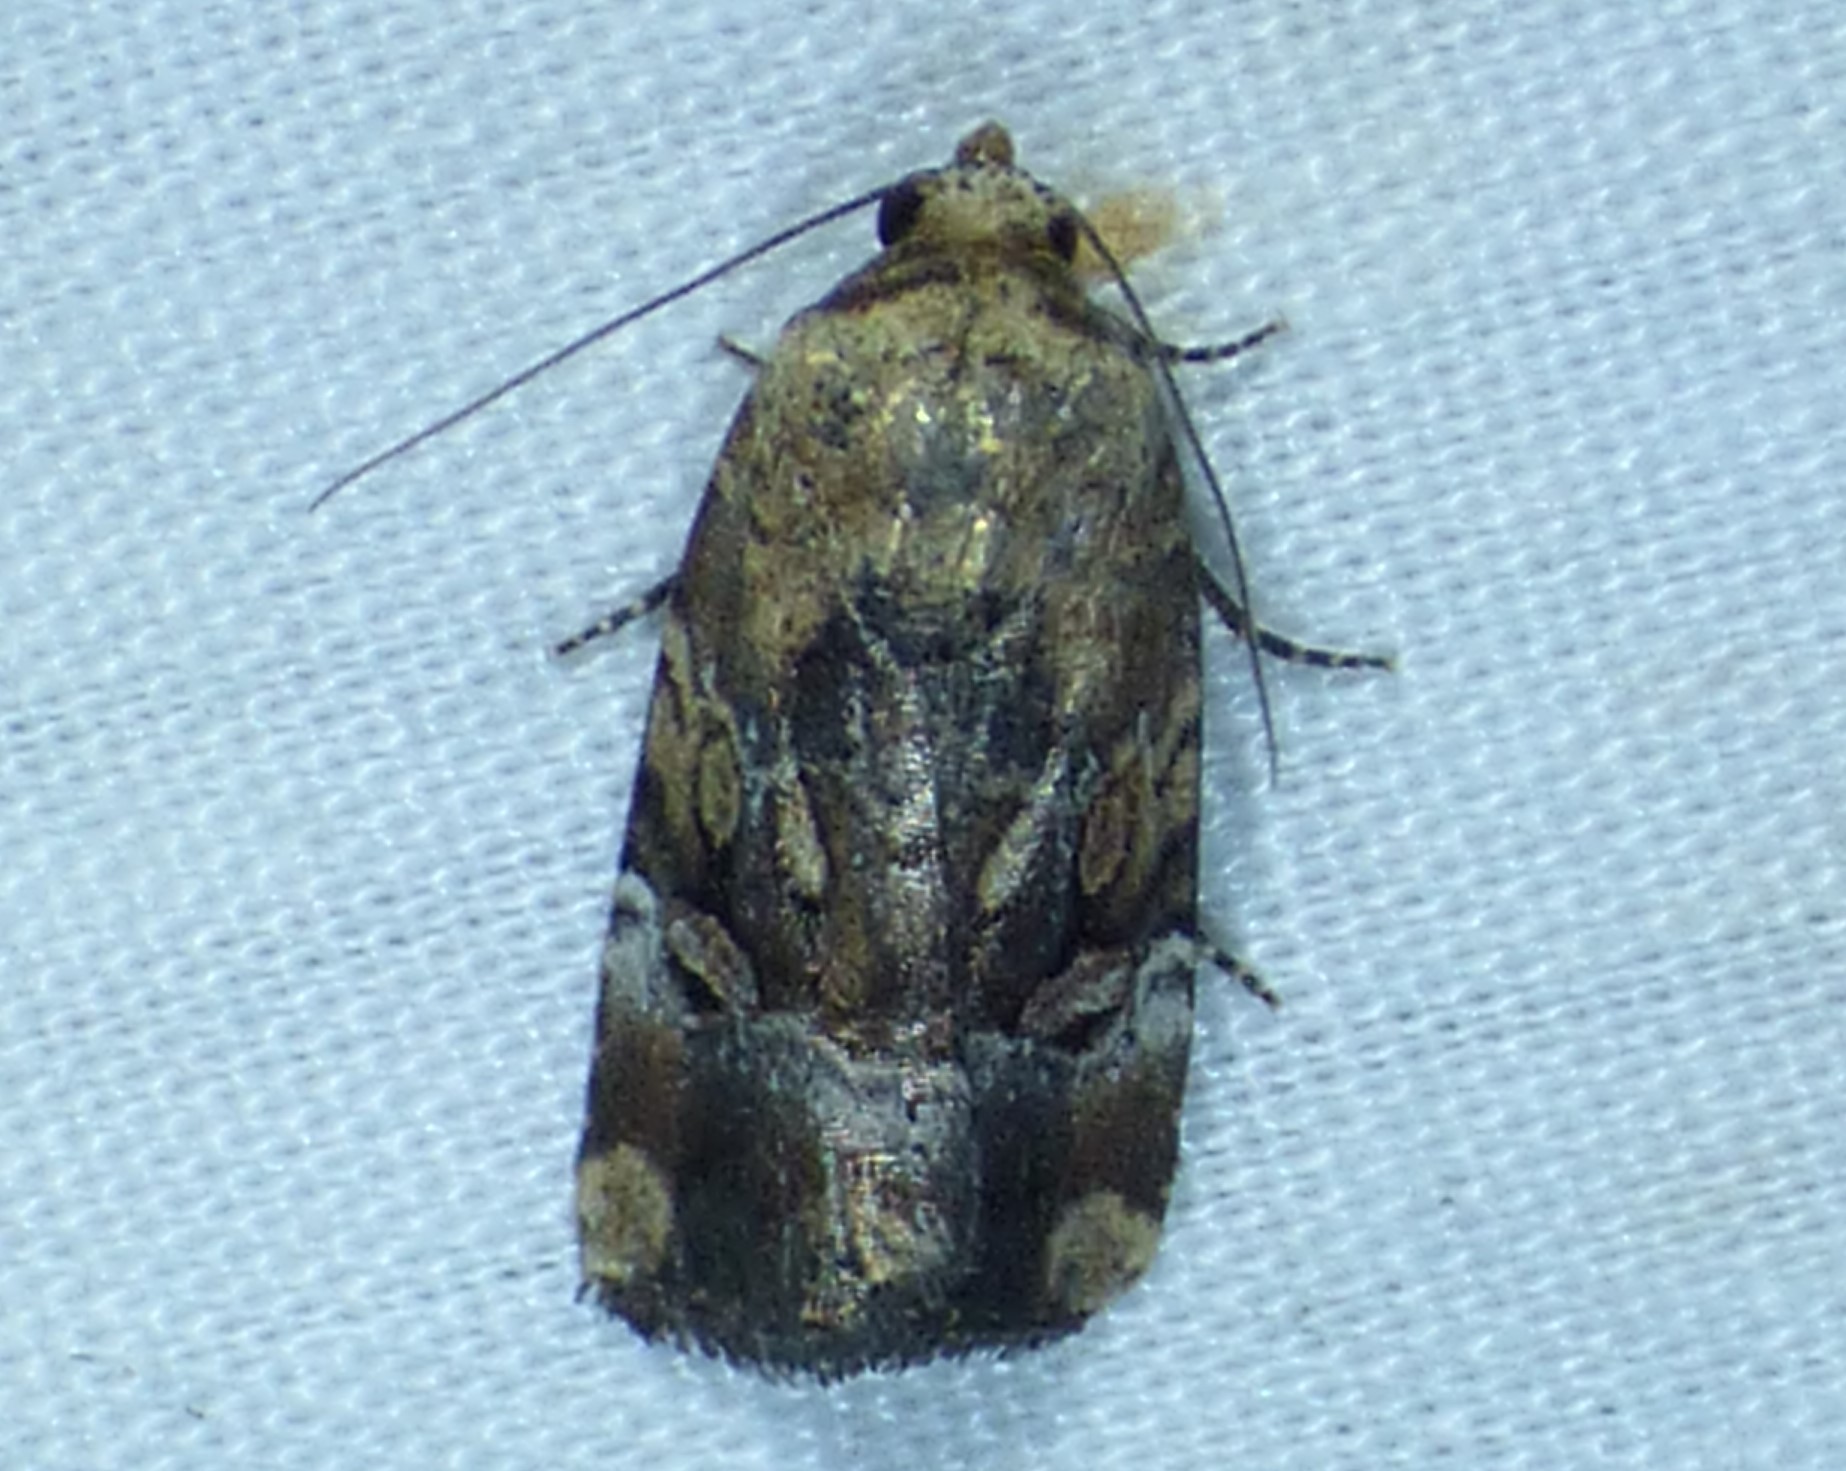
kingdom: Animalia
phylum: Arthropoda
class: Insecta
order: Lepidoptera
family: Noctuidae
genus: Elaphria
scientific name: Elaphria chalcedonia
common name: Chalcedony midget
